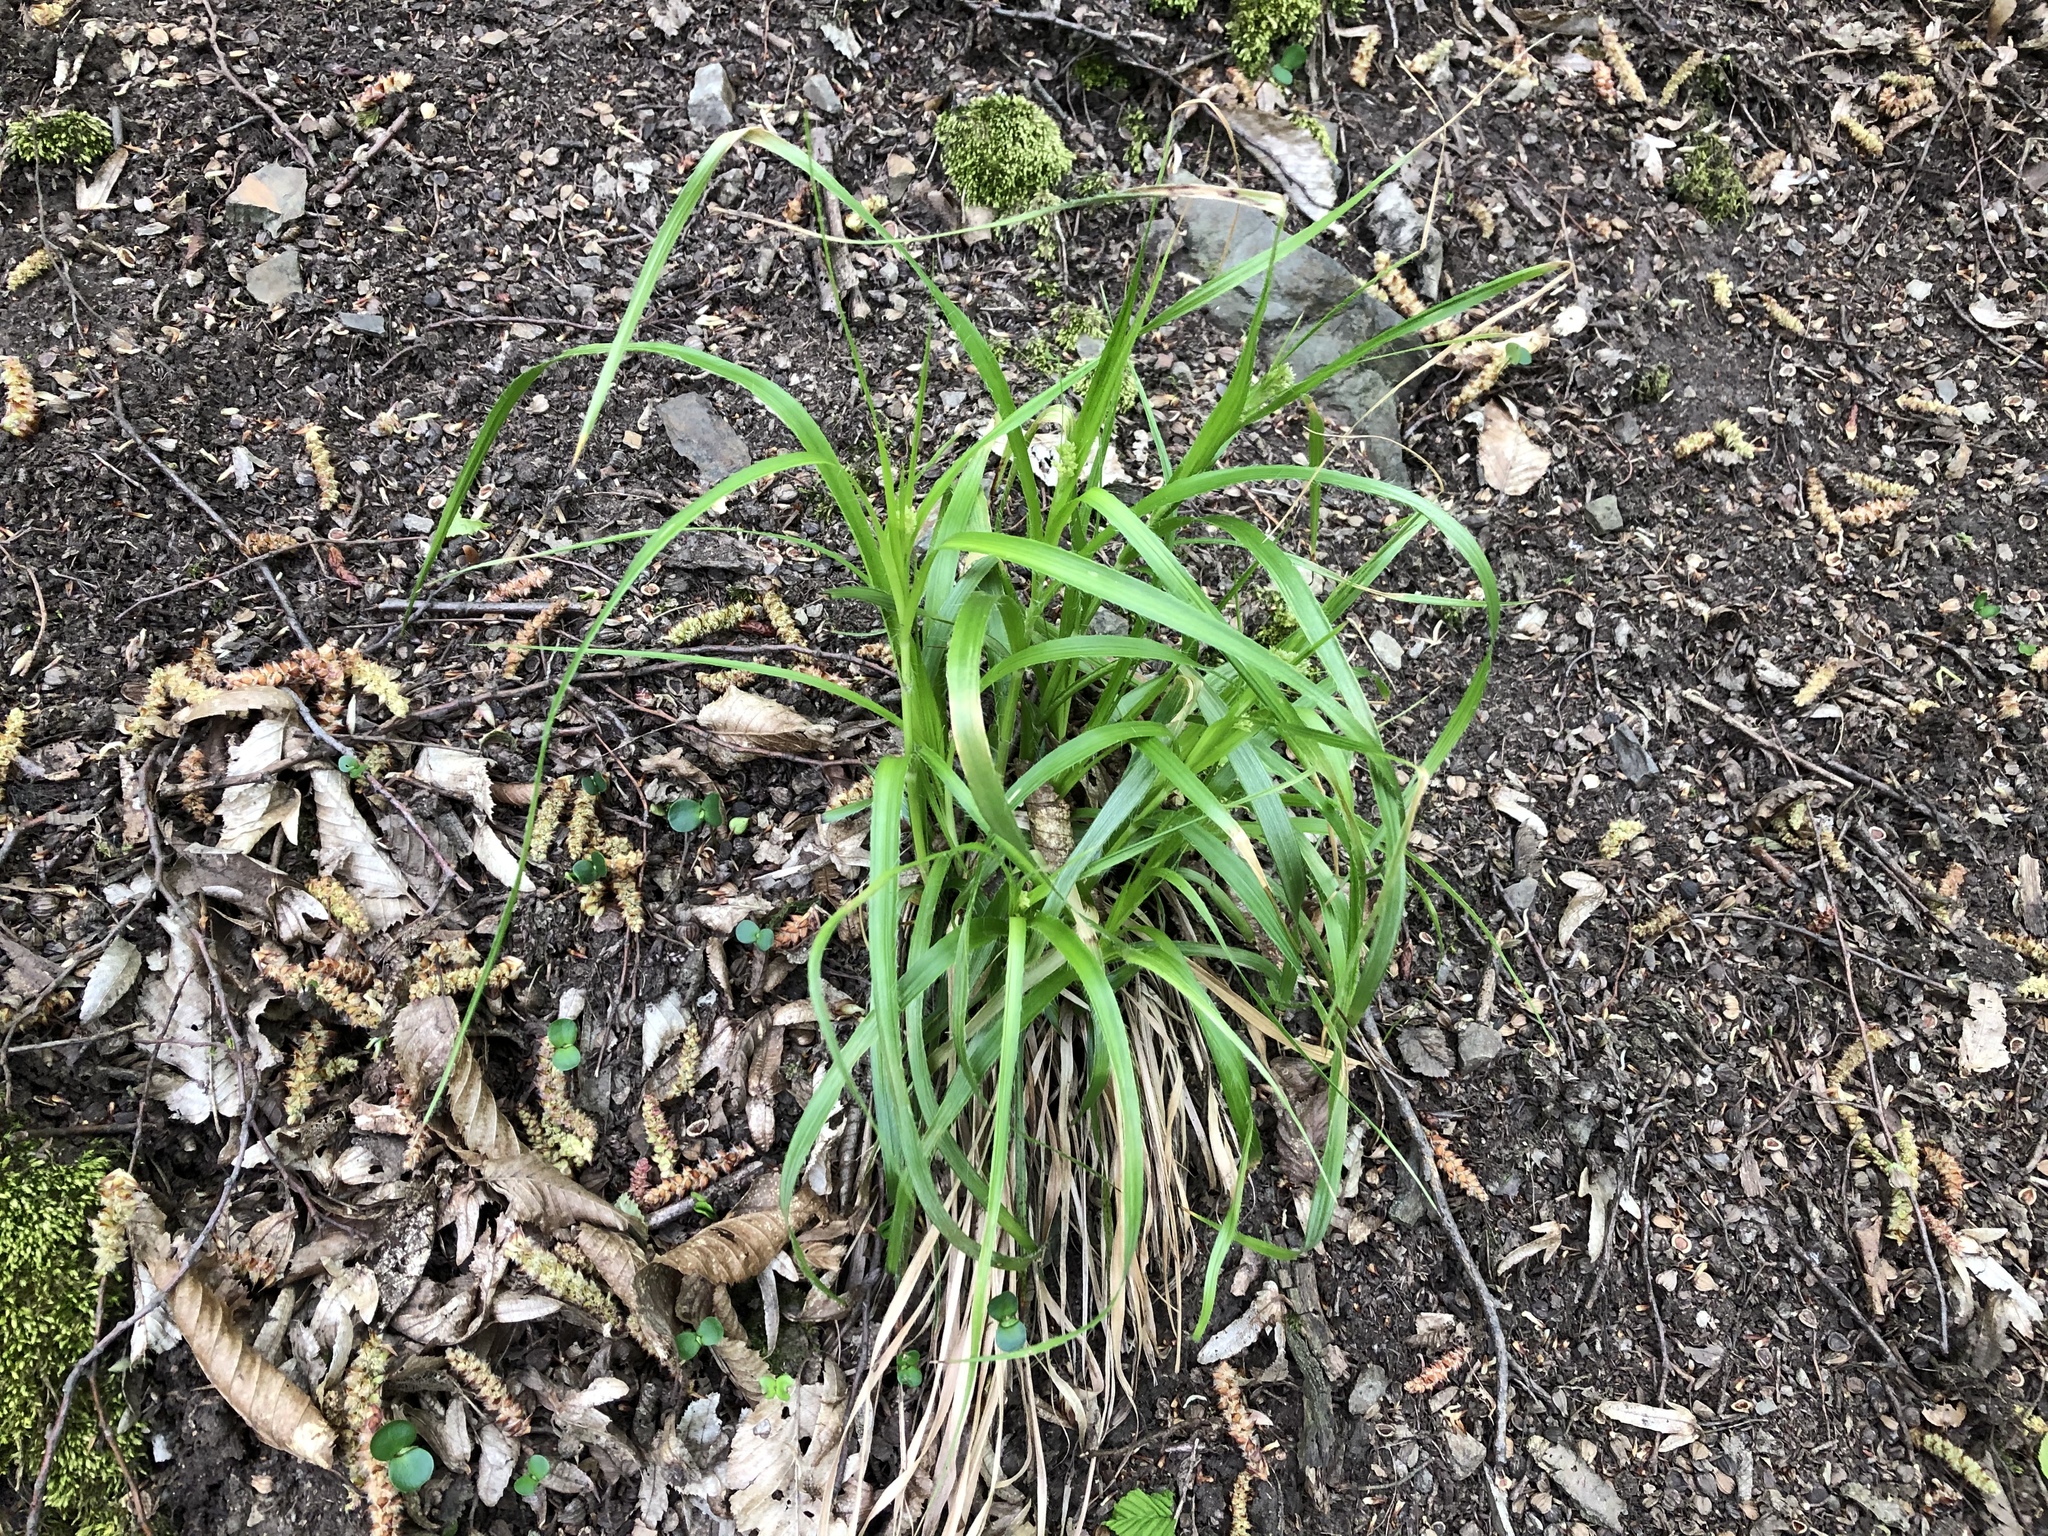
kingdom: Plantae
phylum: Tracheophyta
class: Liliopsida
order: Poales
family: Juncaceae
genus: Luzula
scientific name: Luzula luzuloides
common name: White wood-rush
